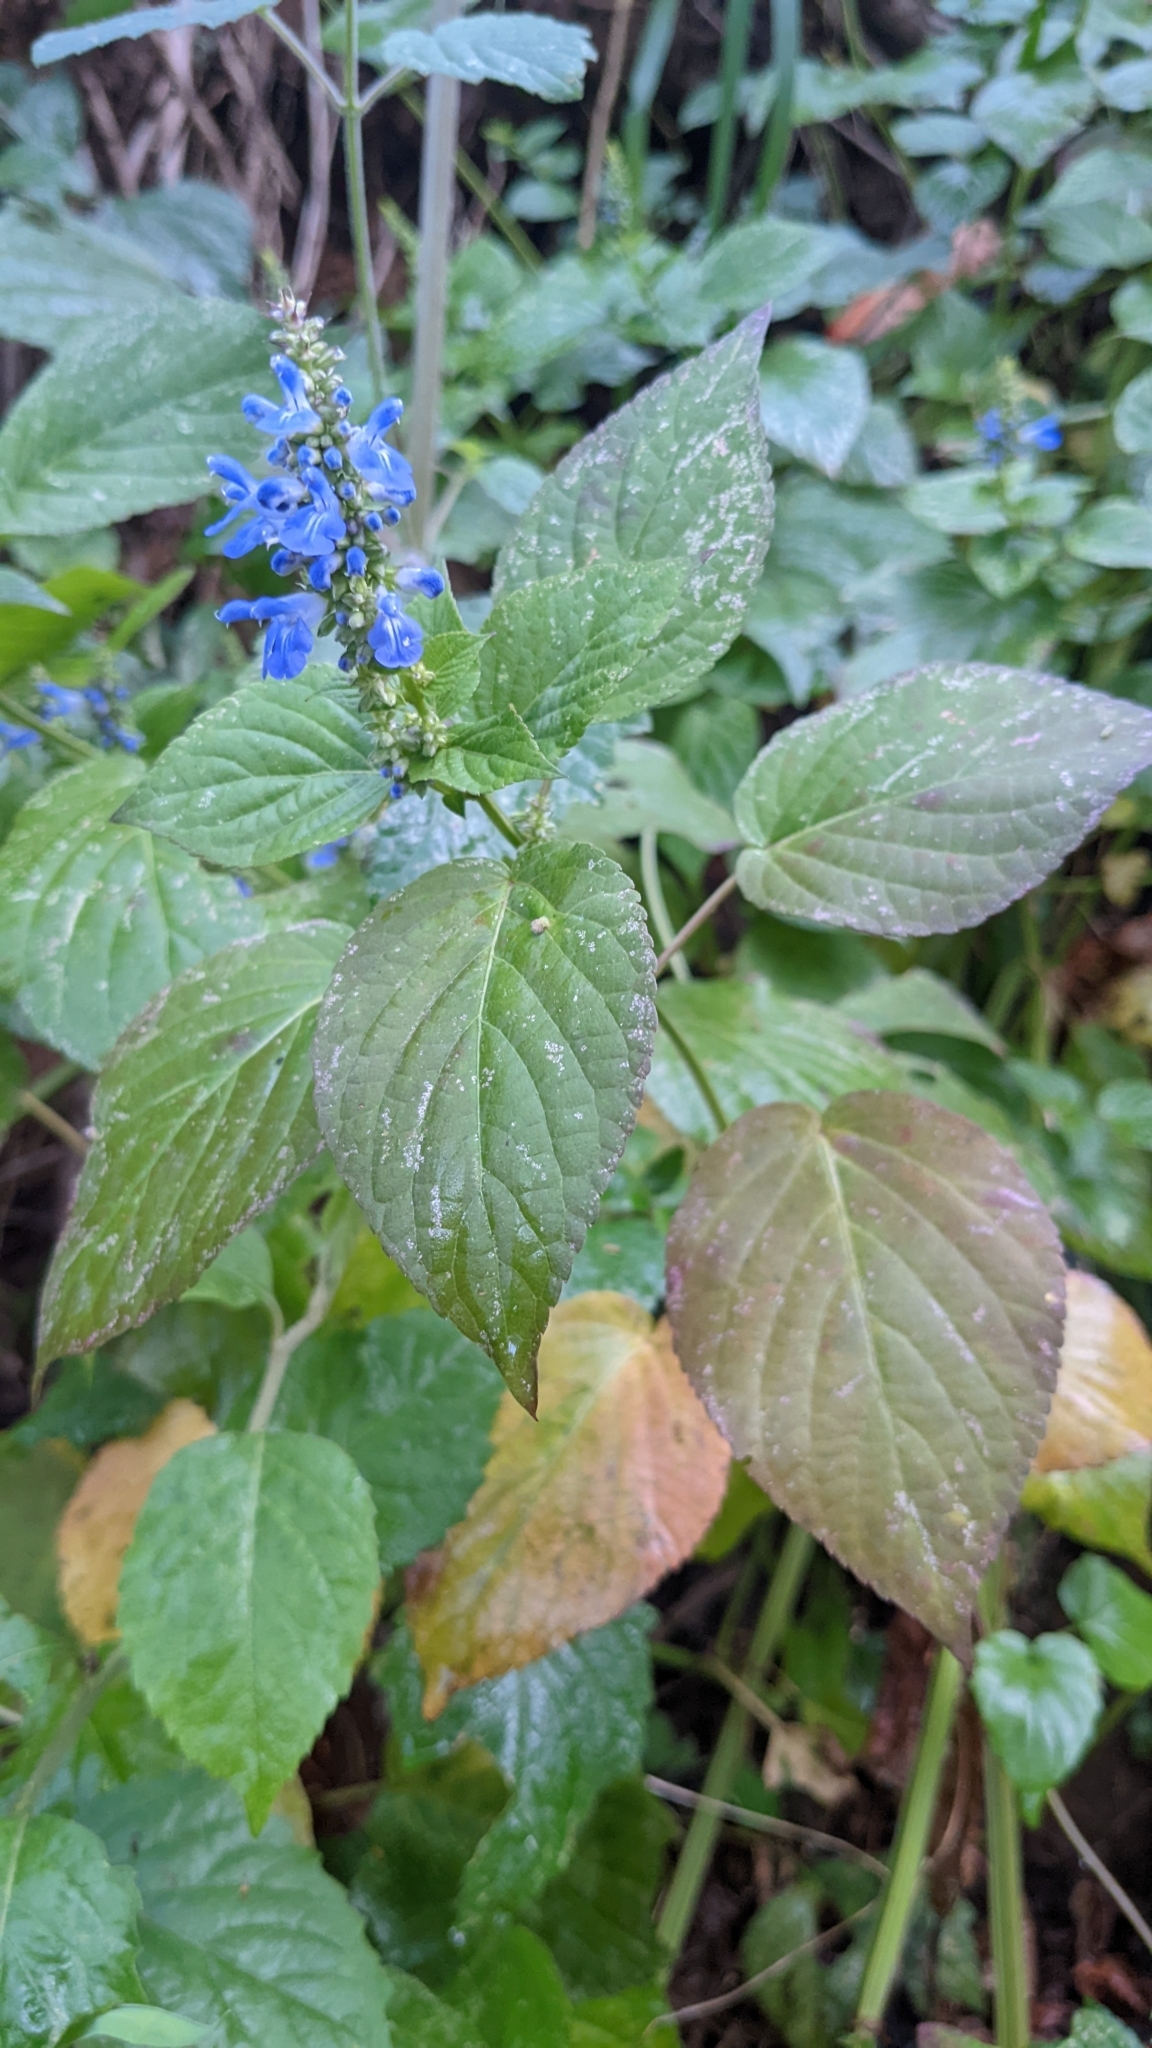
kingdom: Plantae
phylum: Tracheophyta
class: Magnoliopsida
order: Lamiales
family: Lamiaceae
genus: Salvia
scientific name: Salvia polystachia
